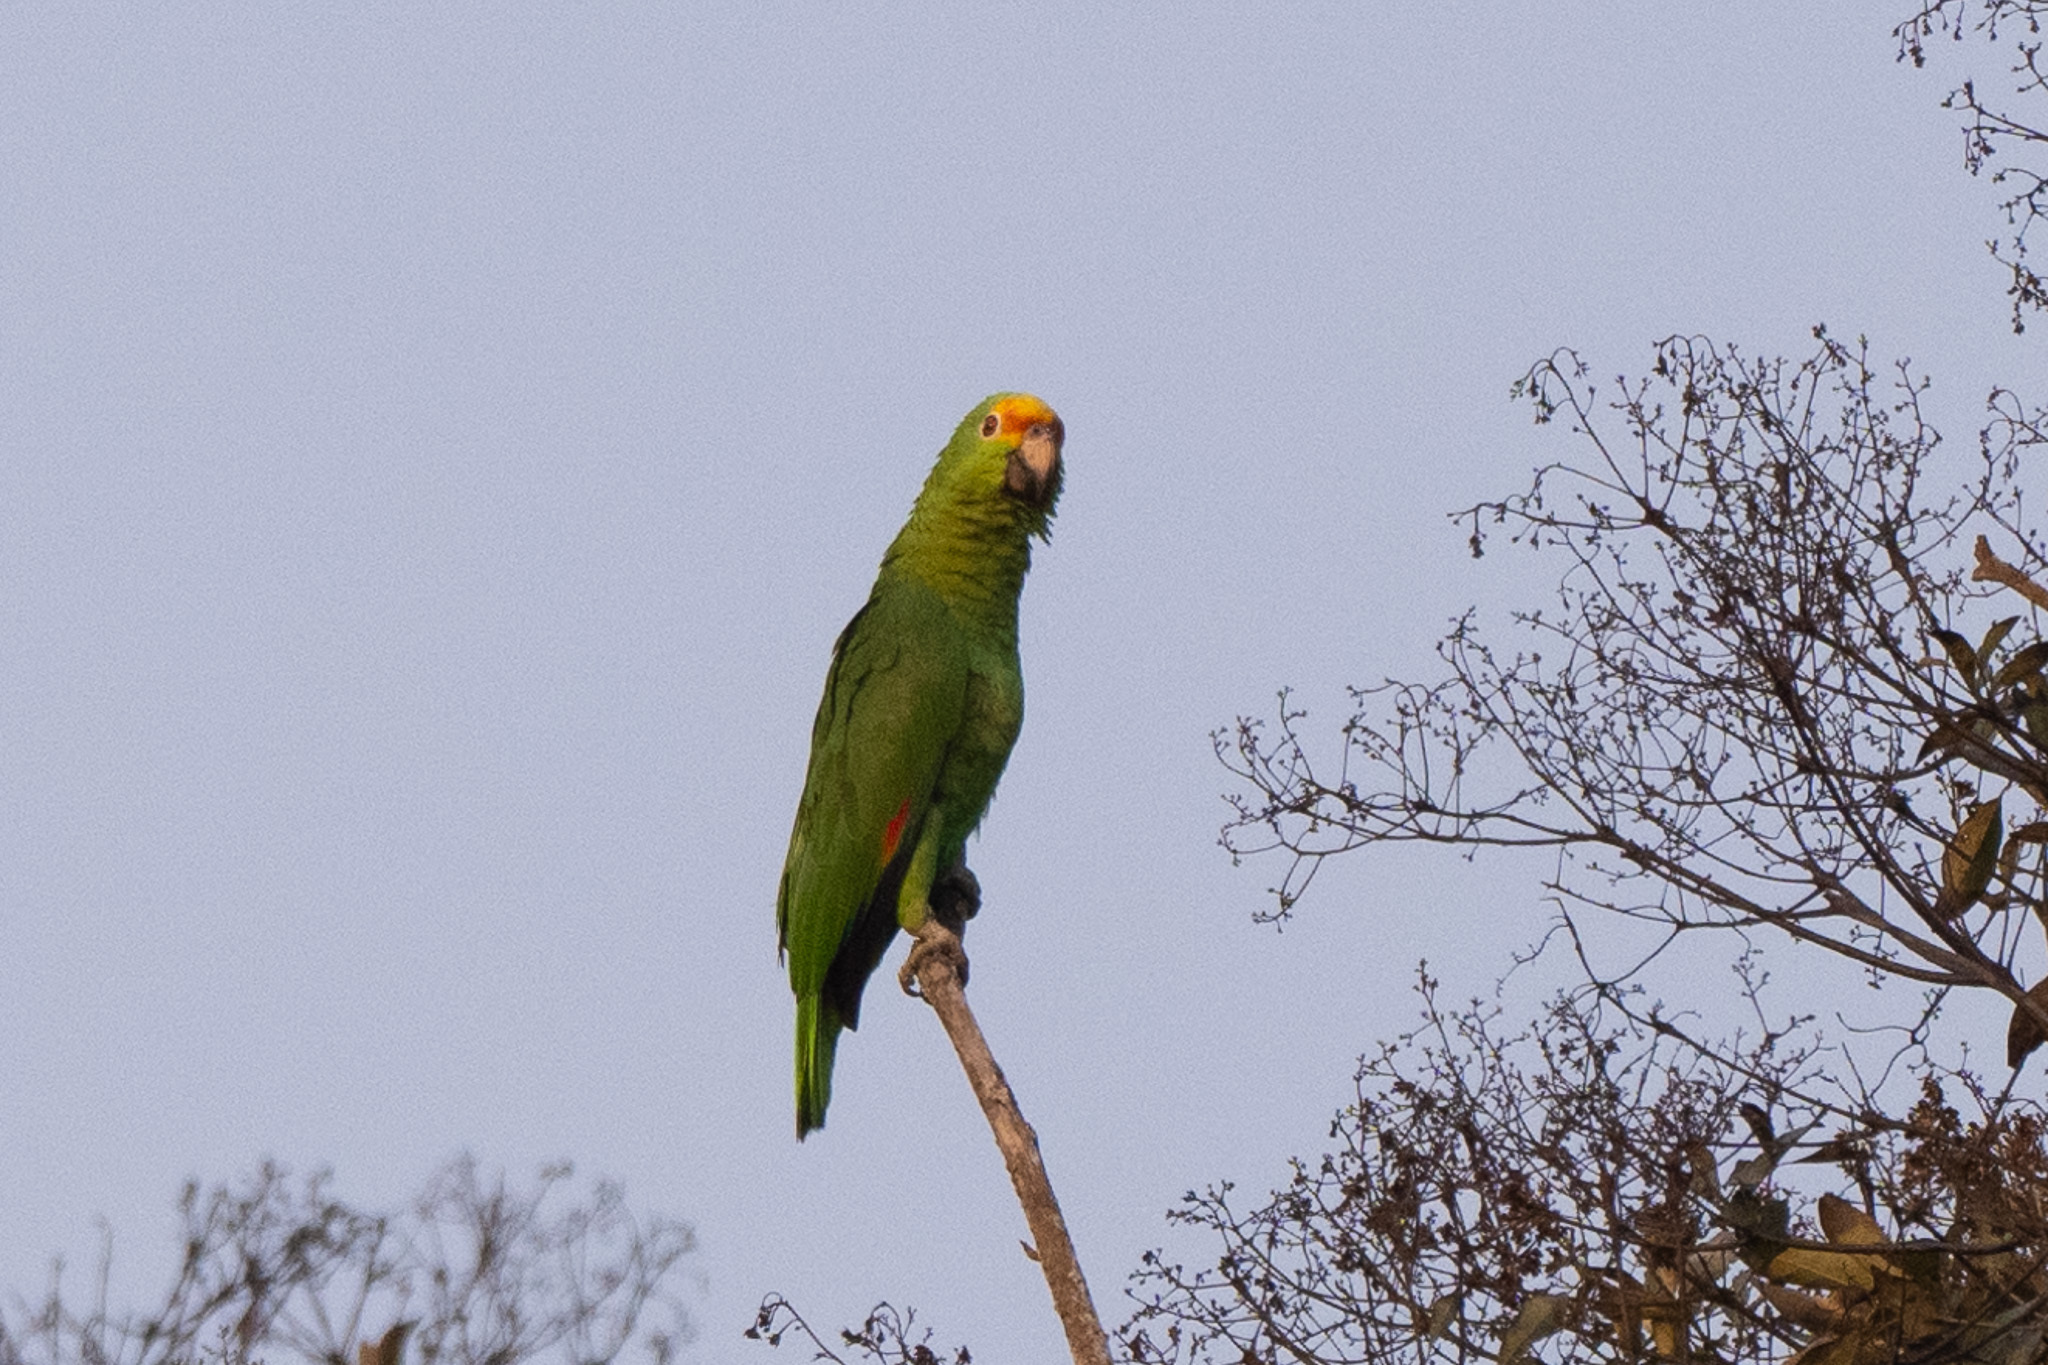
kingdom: Animalia
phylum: Chordata
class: Aves
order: Psittaciformes
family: Psittacidae
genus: Amazona
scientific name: Amazona
